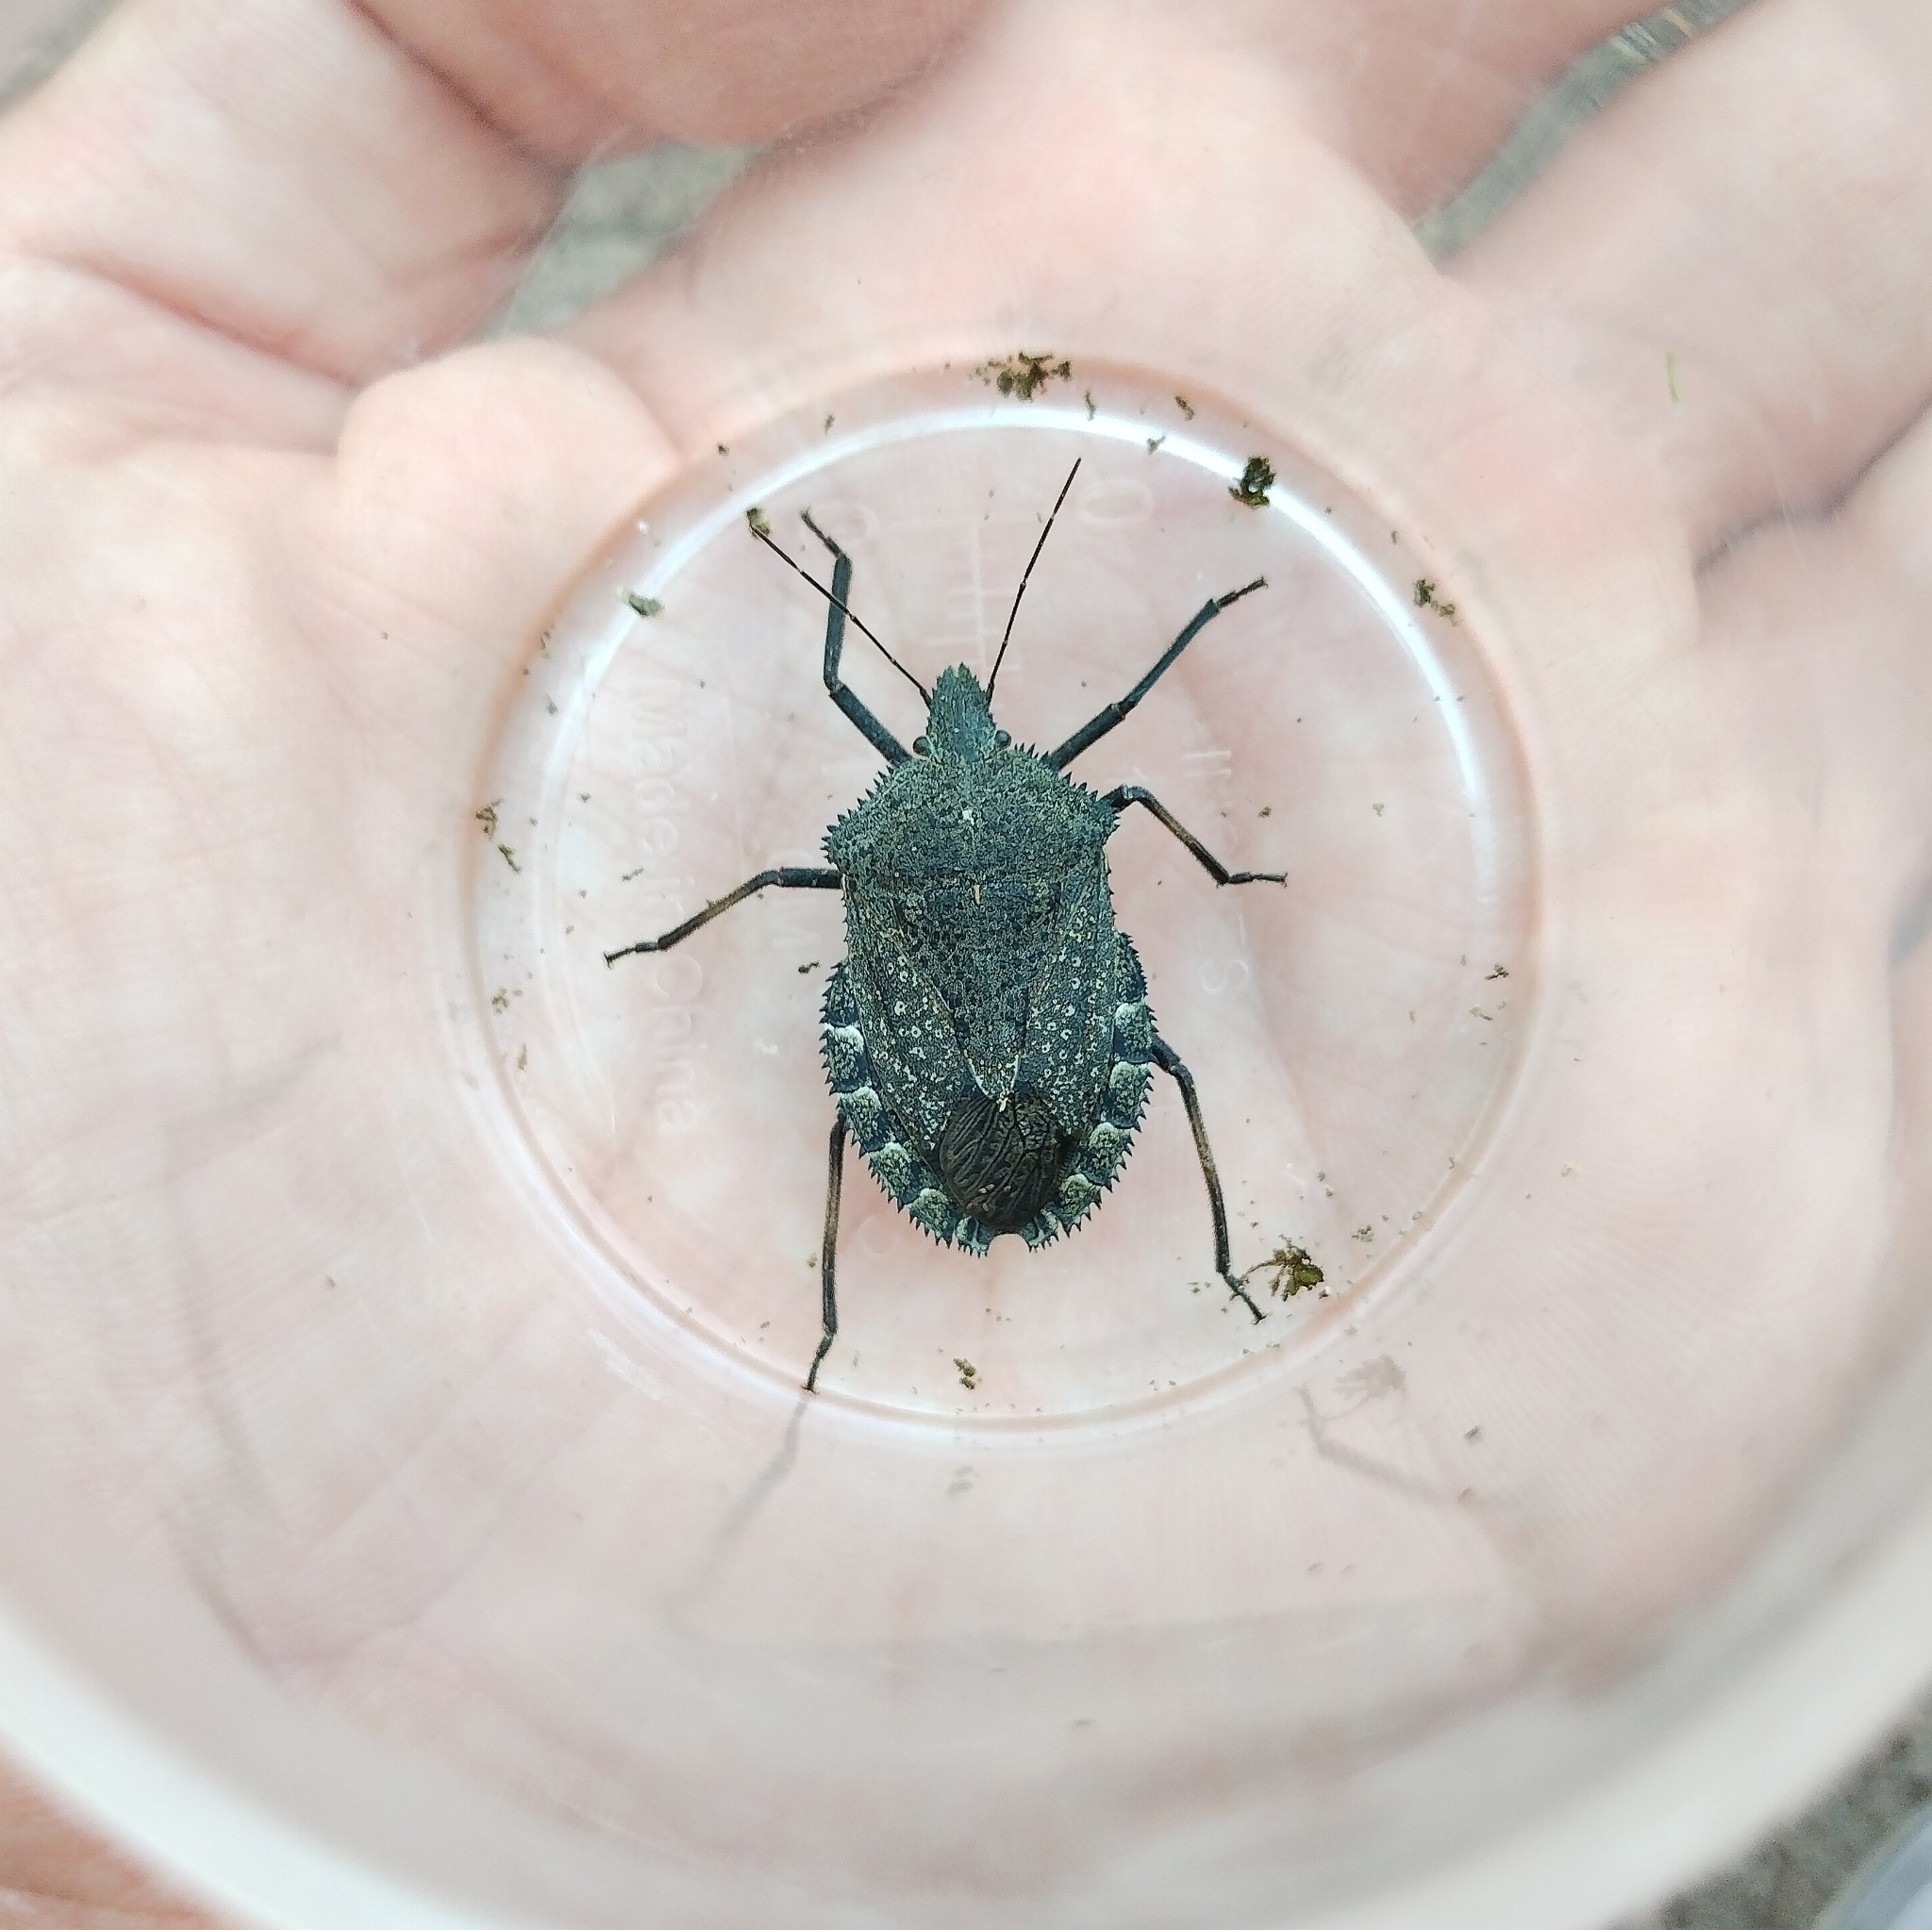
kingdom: Animalia
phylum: Arthropoda
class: Insecta
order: Hemiptera
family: Pentatomidae
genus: Mustha
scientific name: Mustha spinosula
